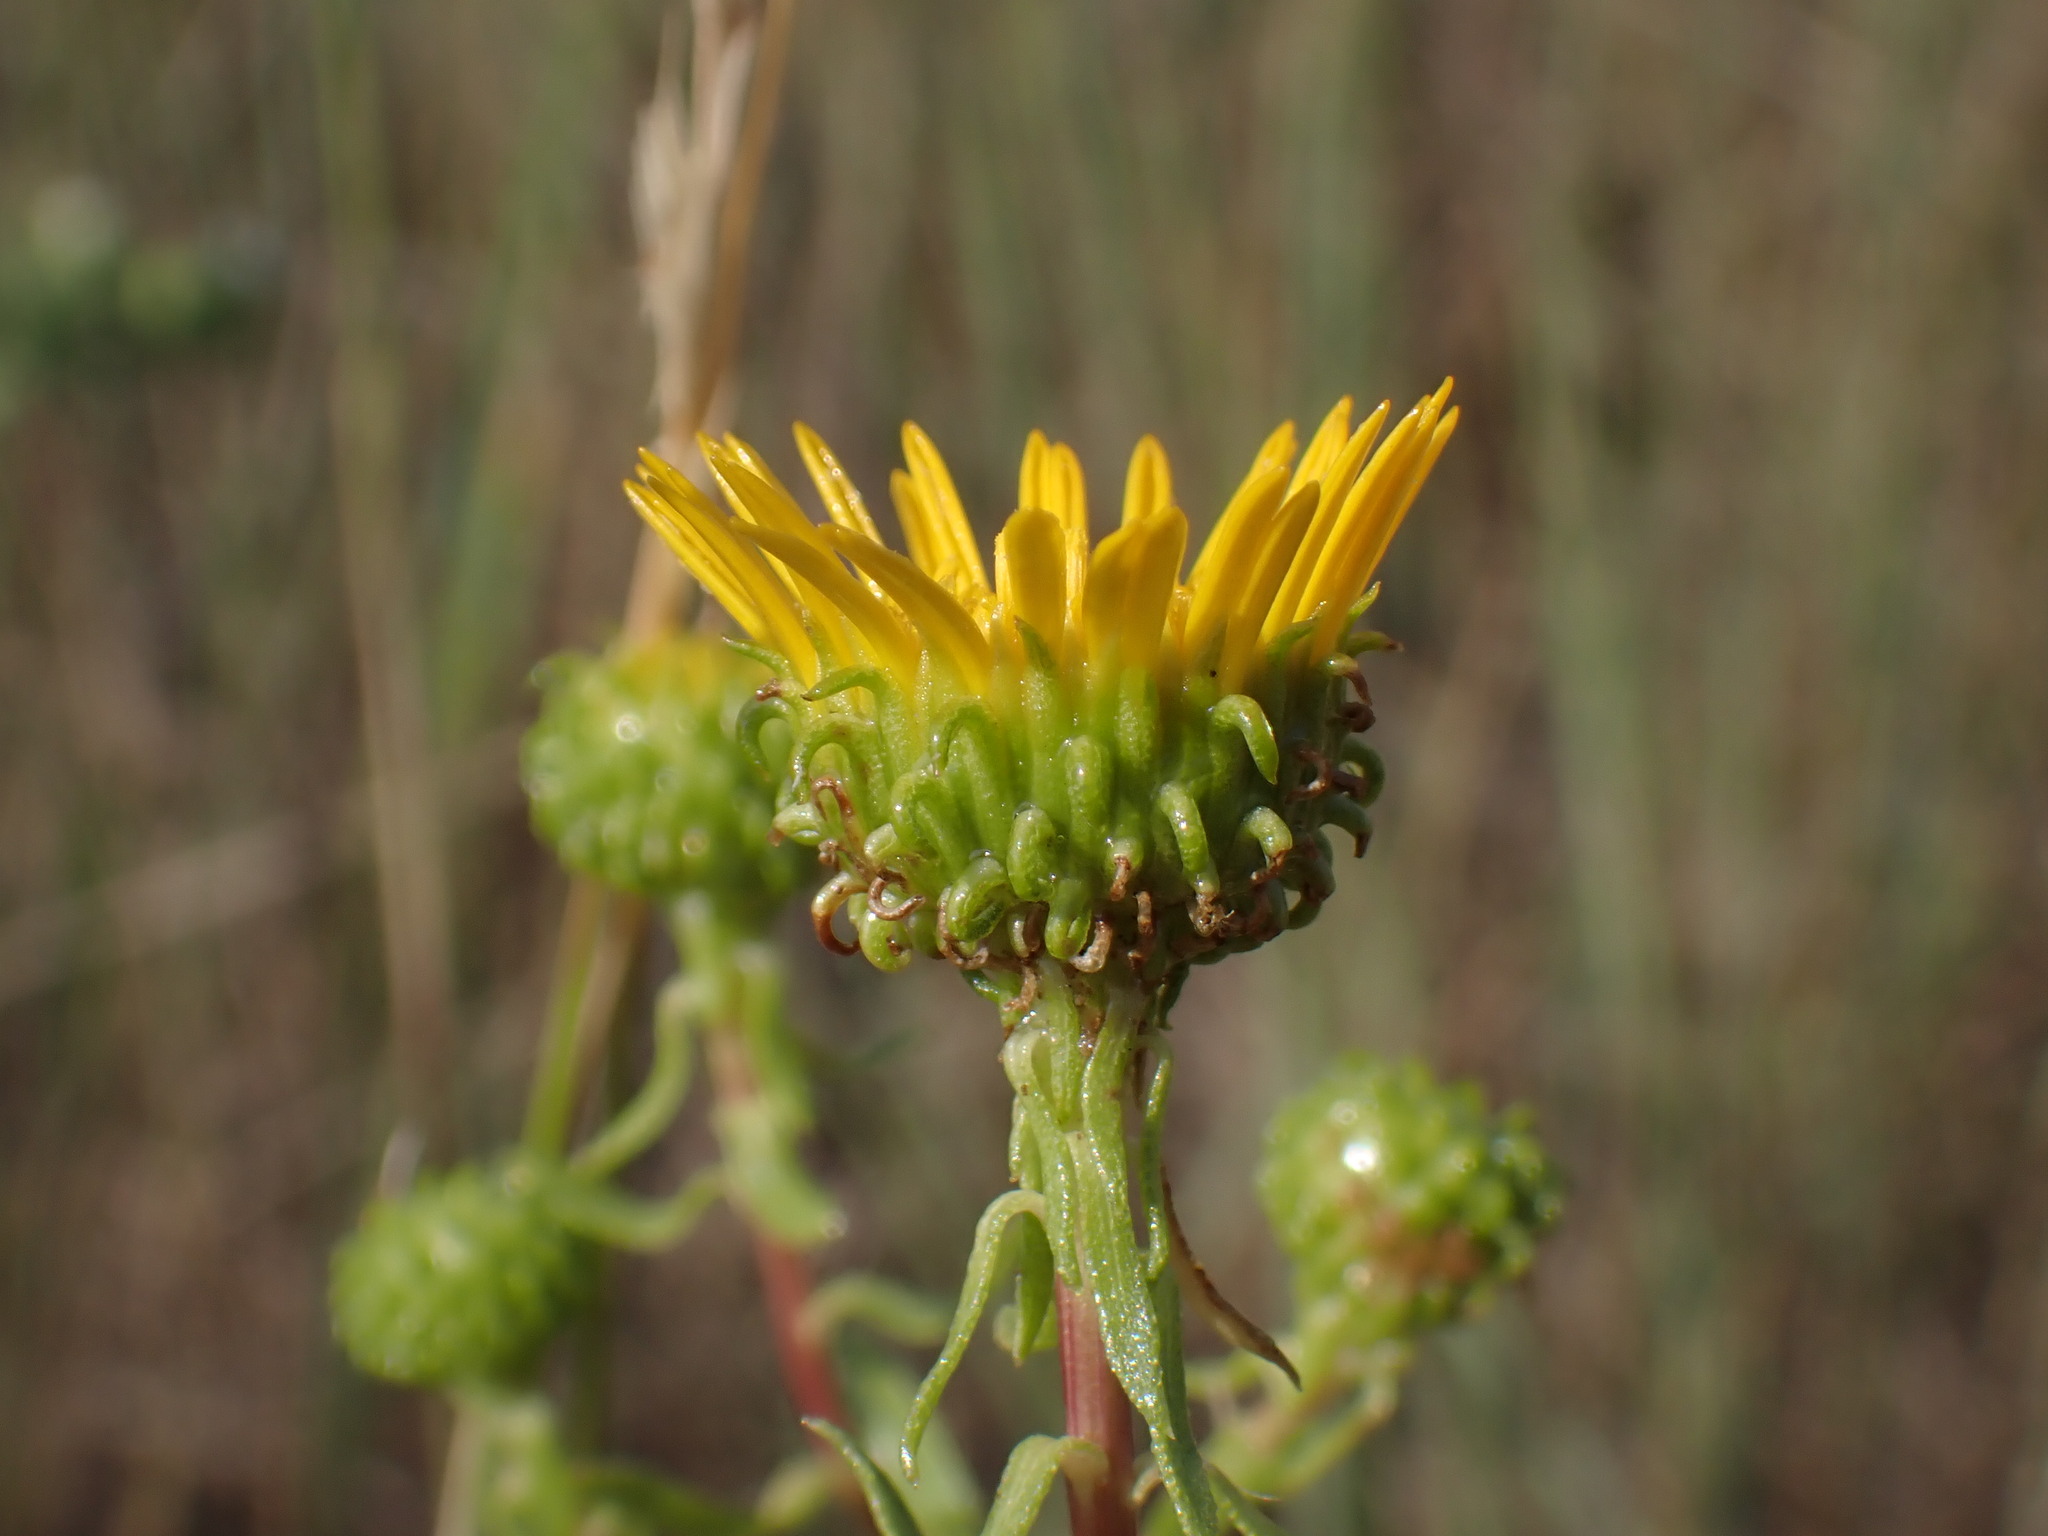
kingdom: Plantae
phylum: Tracheophyta
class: Magnoliopsida
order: Asterales
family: Asteraceae
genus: Grindelia
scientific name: Grindelia squarrosa
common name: Curly-cup gumweed
